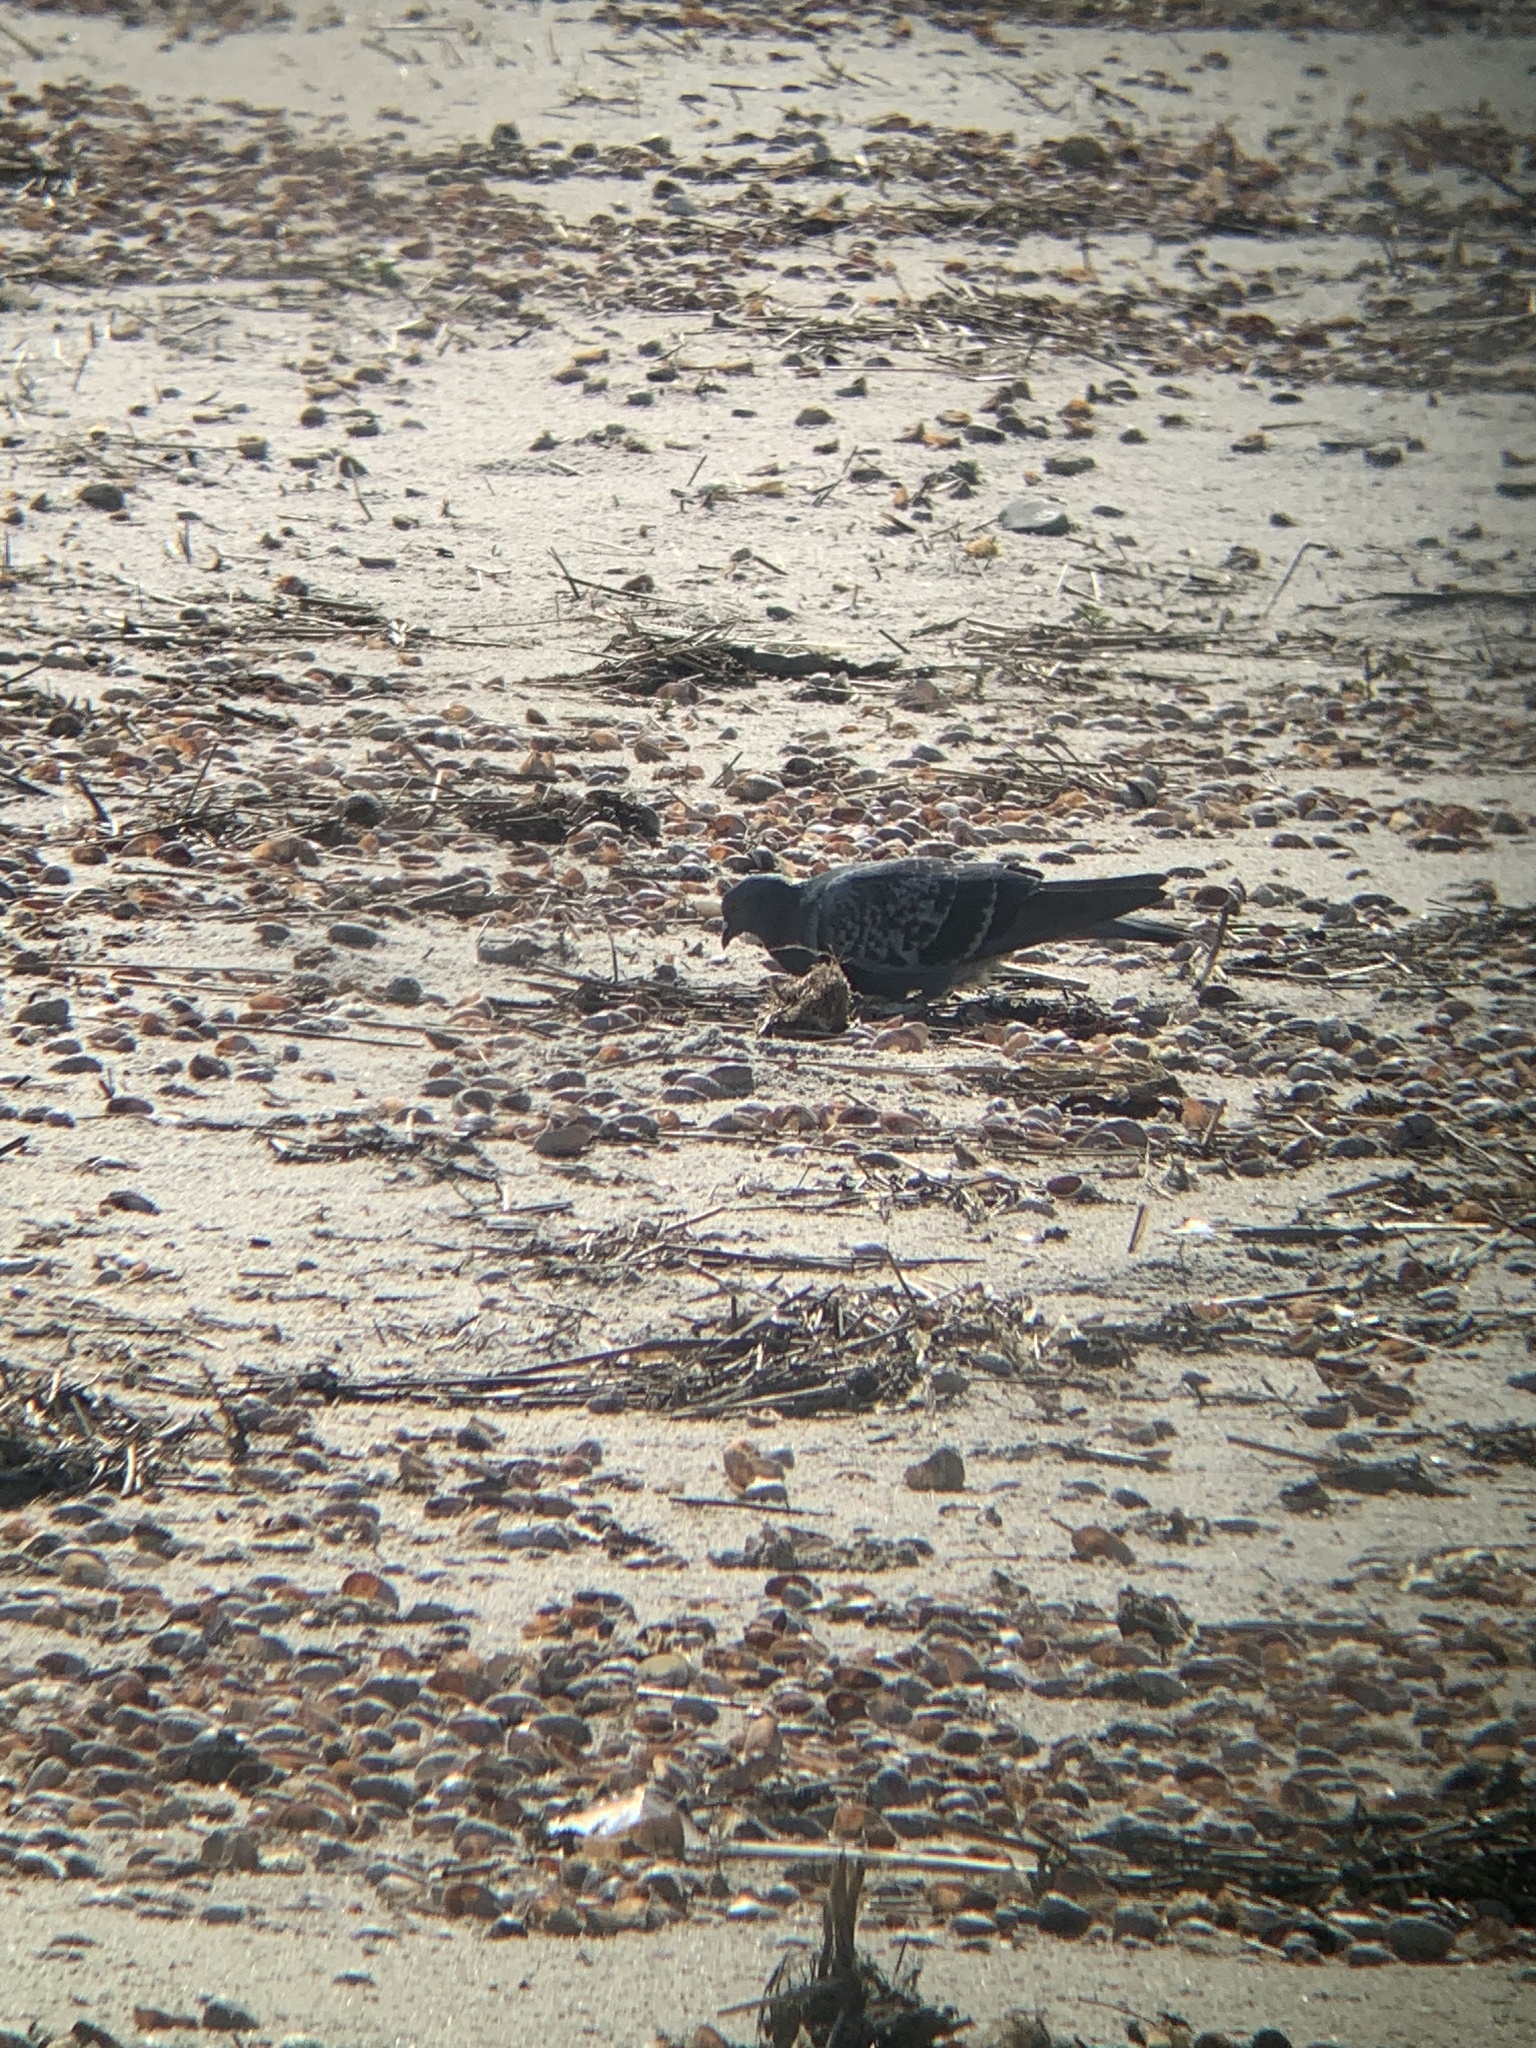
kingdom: Animalia
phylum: Chordata
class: Aves
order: Columbiformes
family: Columbidae
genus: Columba
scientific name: Columba livia
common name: Rock pigeon
